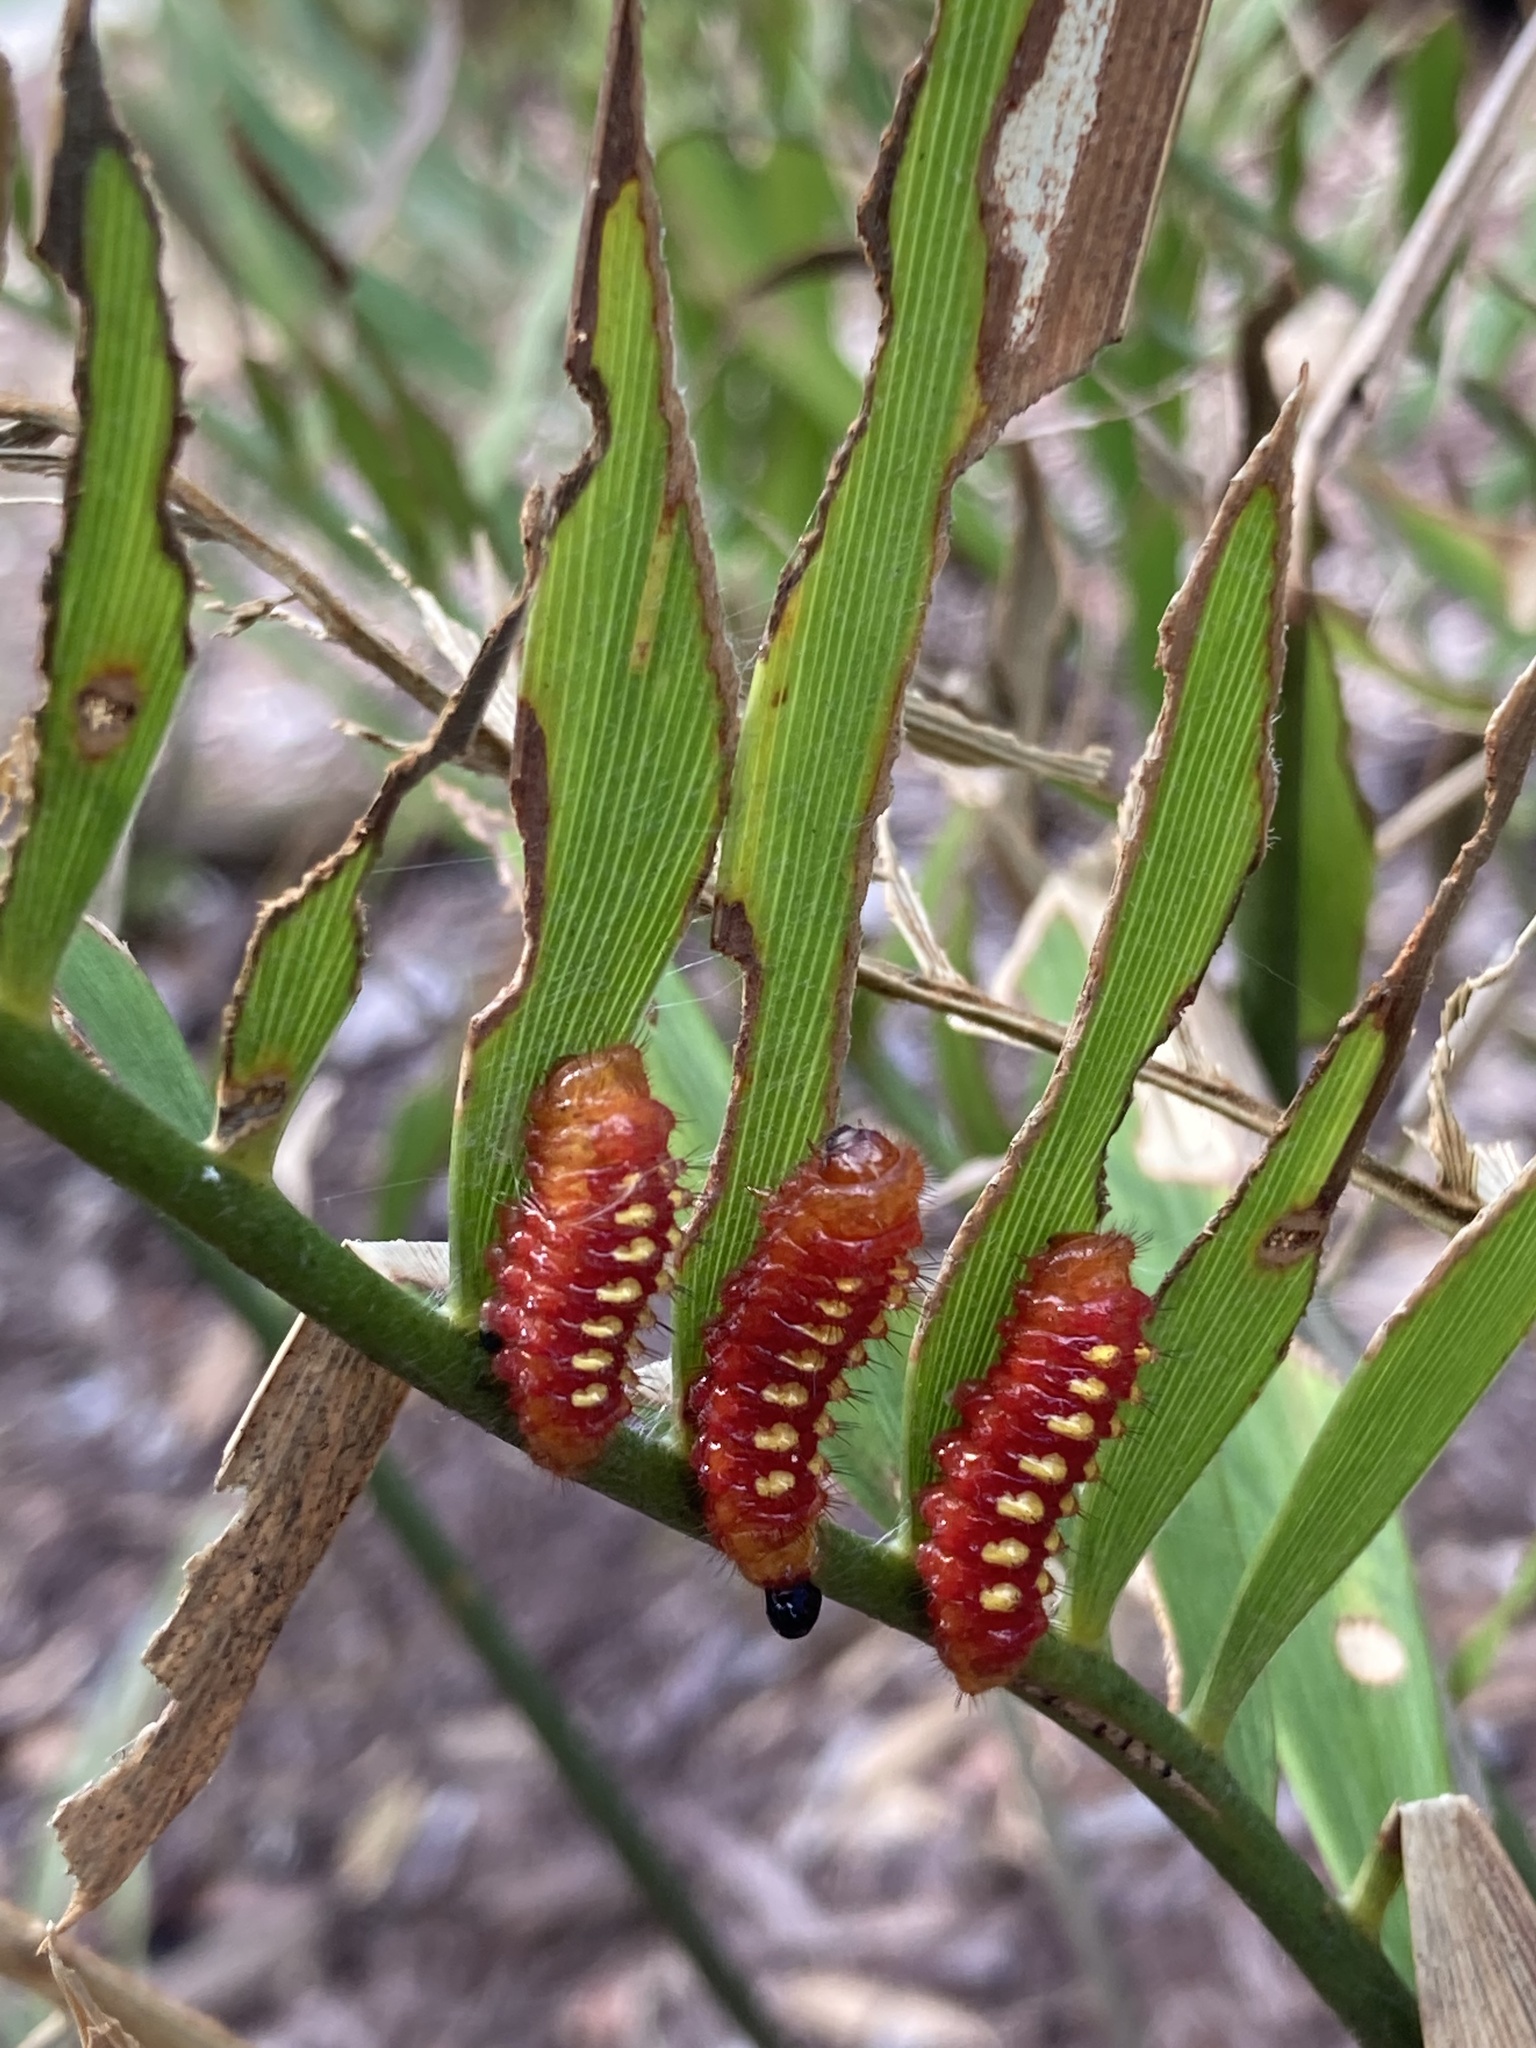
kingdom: Animalia
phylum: Arthropoda
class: Insecta
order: Lepidoptera
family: Lycaenidae
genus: Eumaeus
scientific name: Eumaeus atala
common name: Atala
